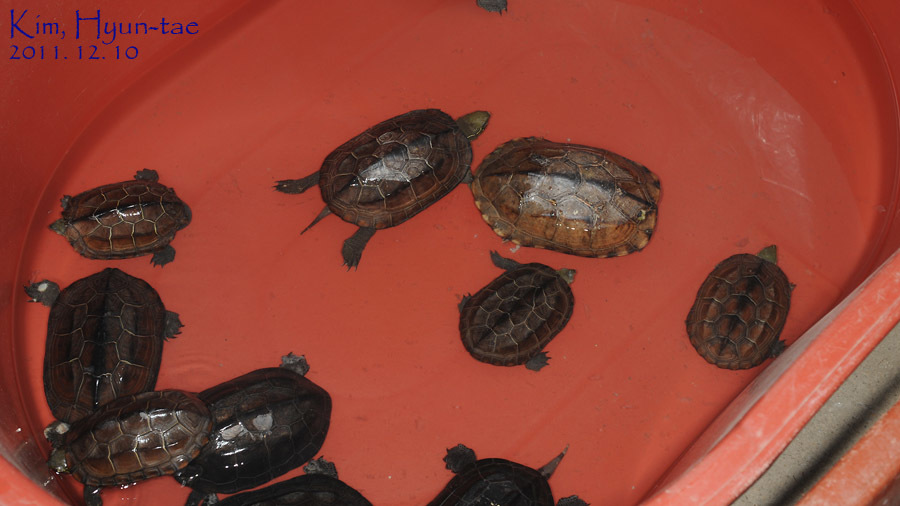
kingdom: Animalia
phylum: Chordata
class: Testudines
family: Emydidae
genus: Trachemys
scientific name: Trachemys scripta
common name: Slider
